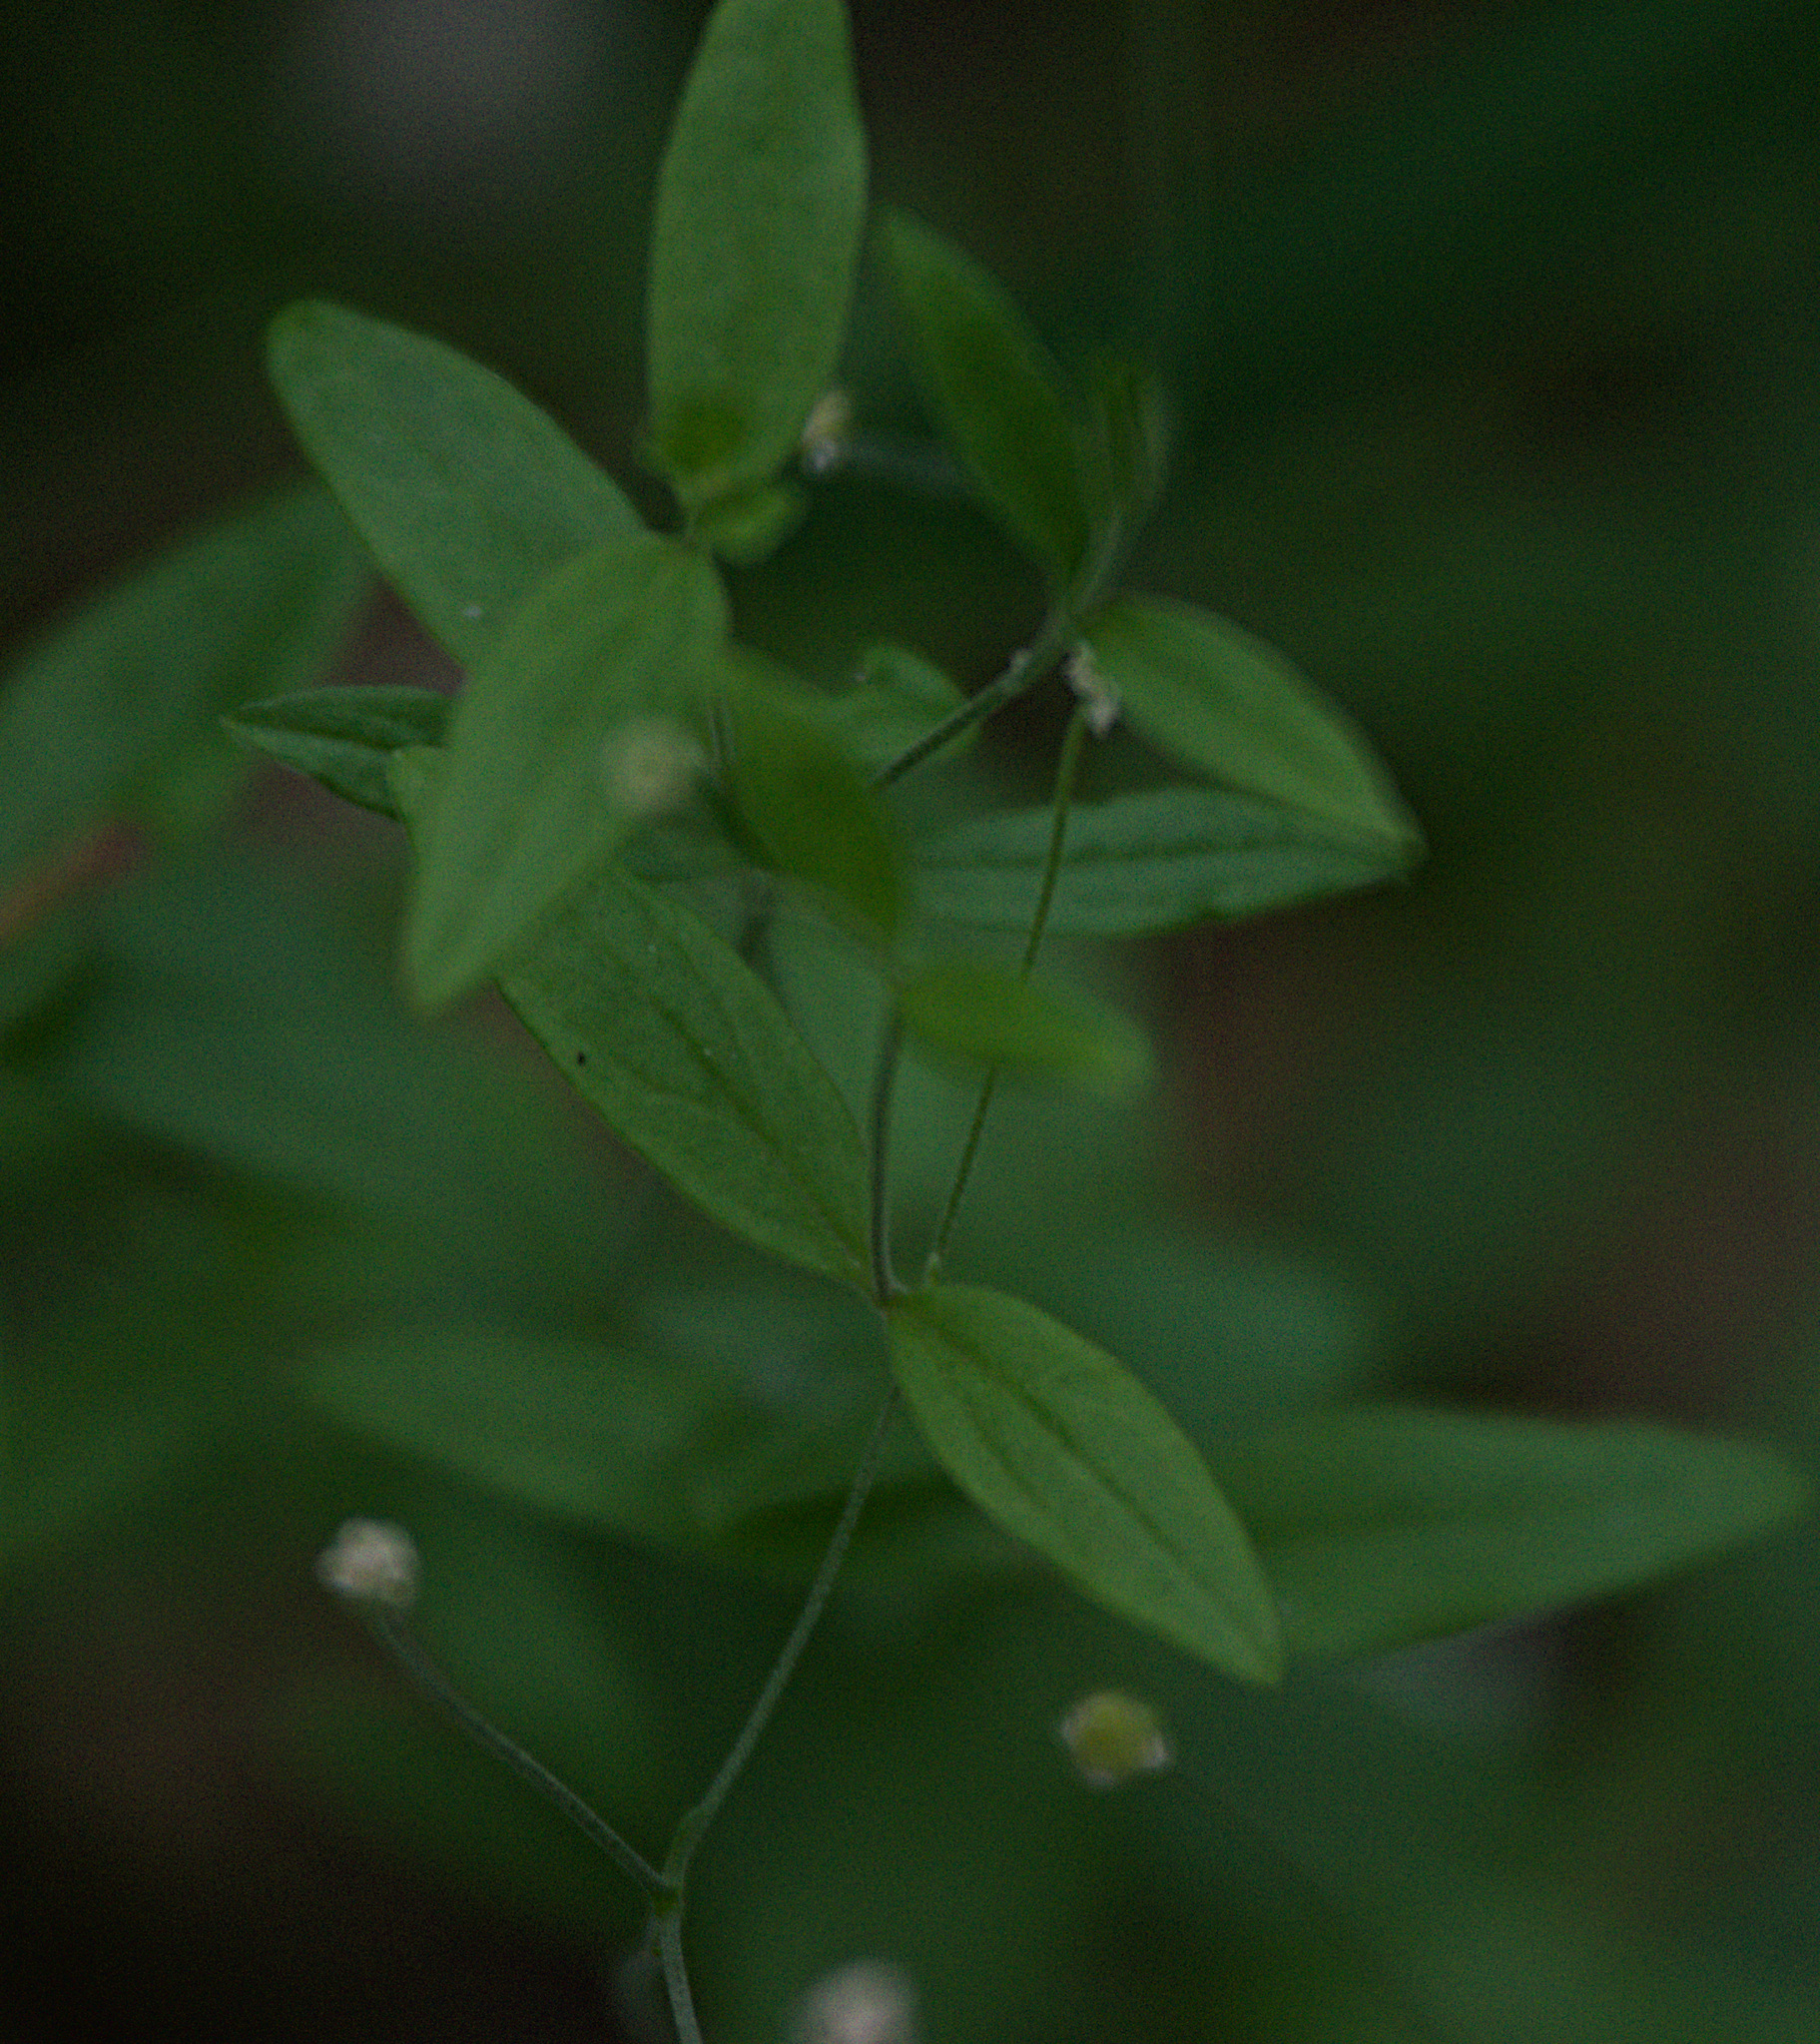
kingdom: Plantae
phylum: Tracheophyta
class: Magnoliopsida
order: Caryophyllales
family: Caryophyllaceae
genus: Moehringia
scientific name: Moehringia lateriflora
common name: Blunt-leaved sandwort
